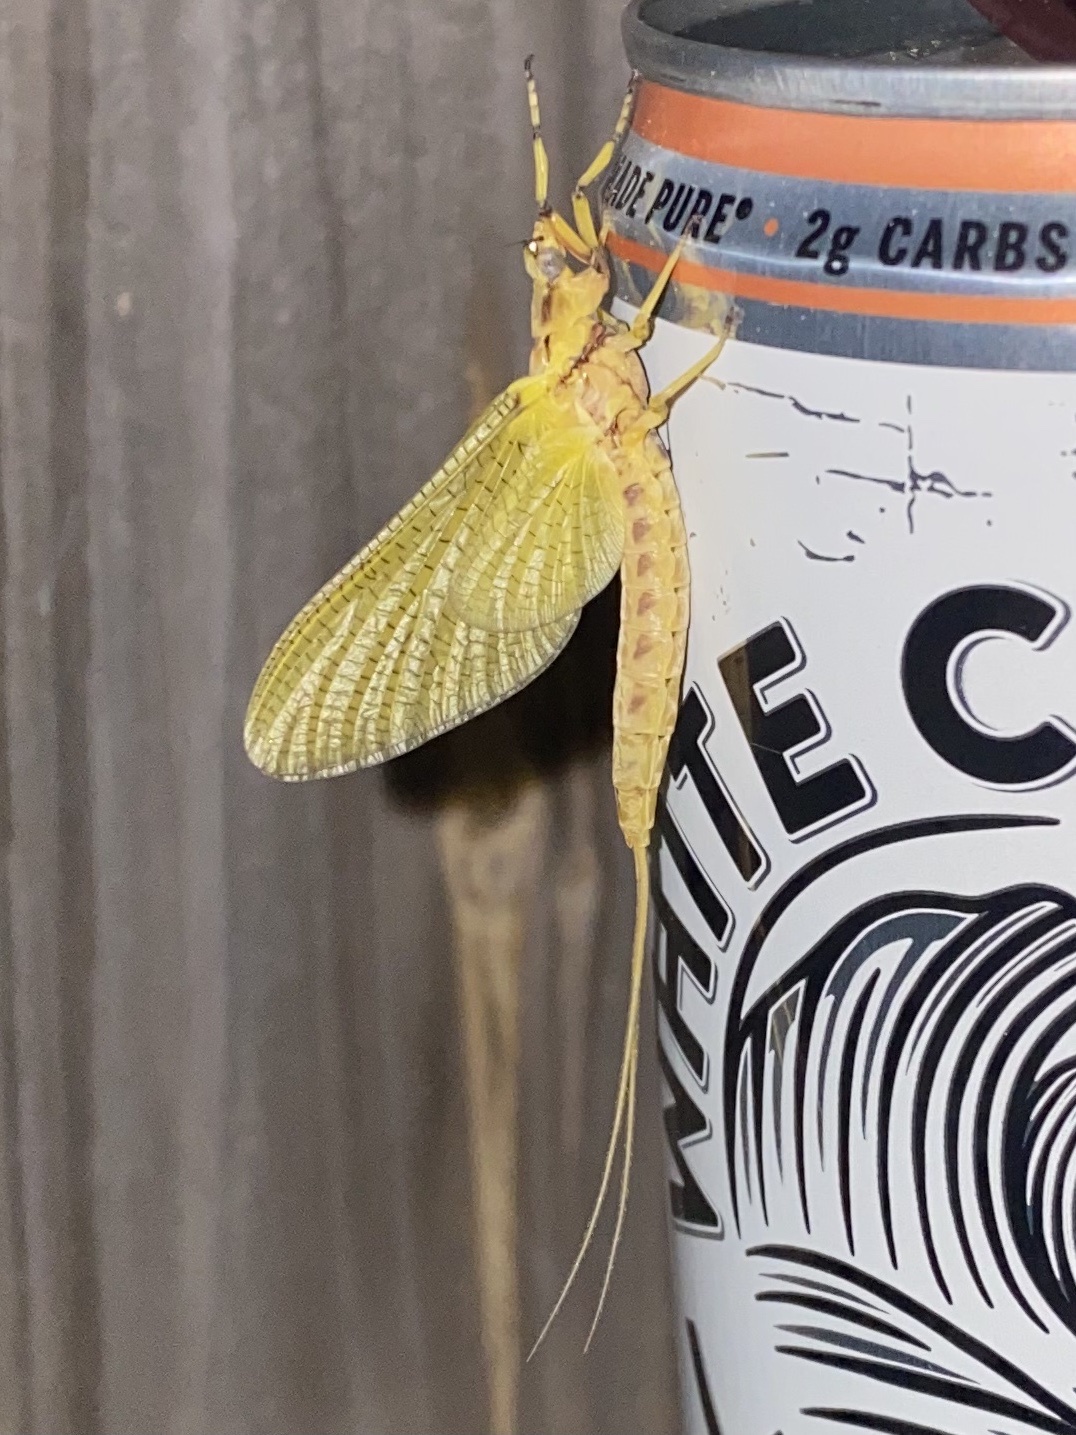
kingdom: Animalia
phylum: Arthropoda
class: Insecta
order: Ephemeroptera
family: Ephemeridae
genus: Hexagenia
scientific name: Hexagenia limbata
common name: Giant mayfly
